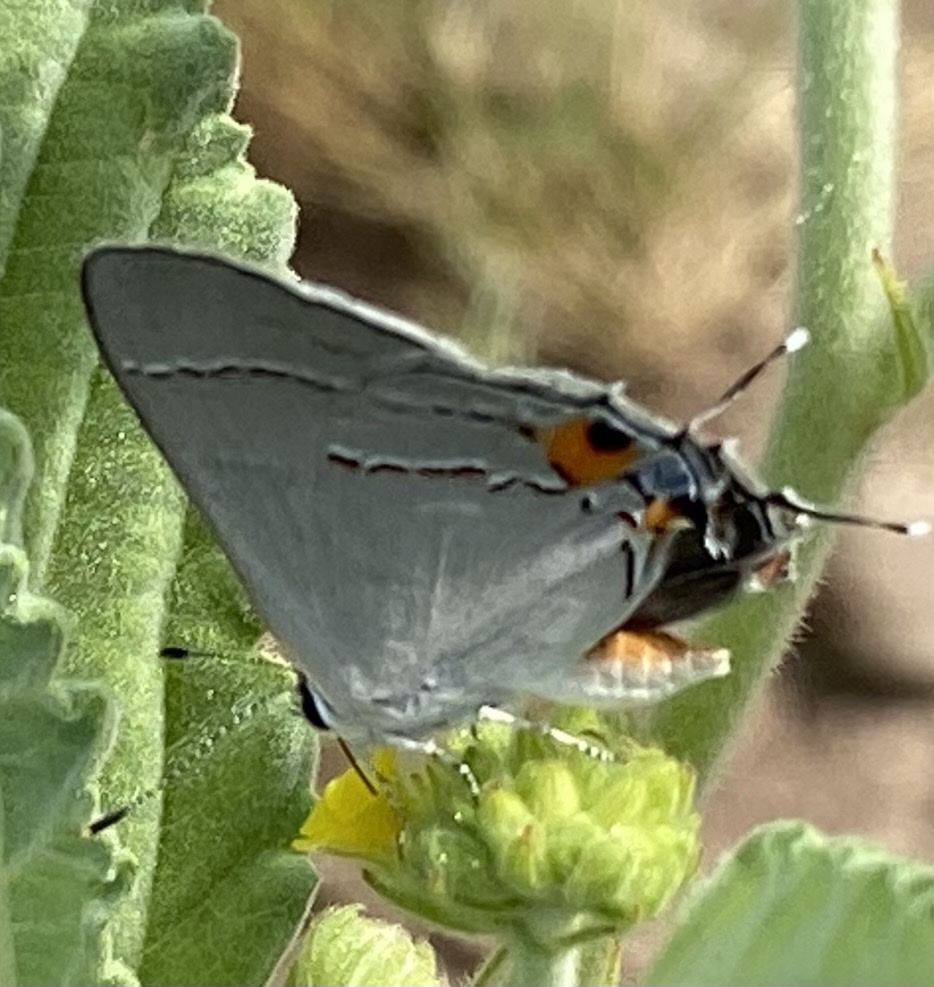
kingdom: Animalia
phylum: Arthropoda
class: Insecta
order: Lepidoptera
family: Lycaenidae
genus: Strymon
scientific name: Strymon melinus
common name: Gray hairstreak
